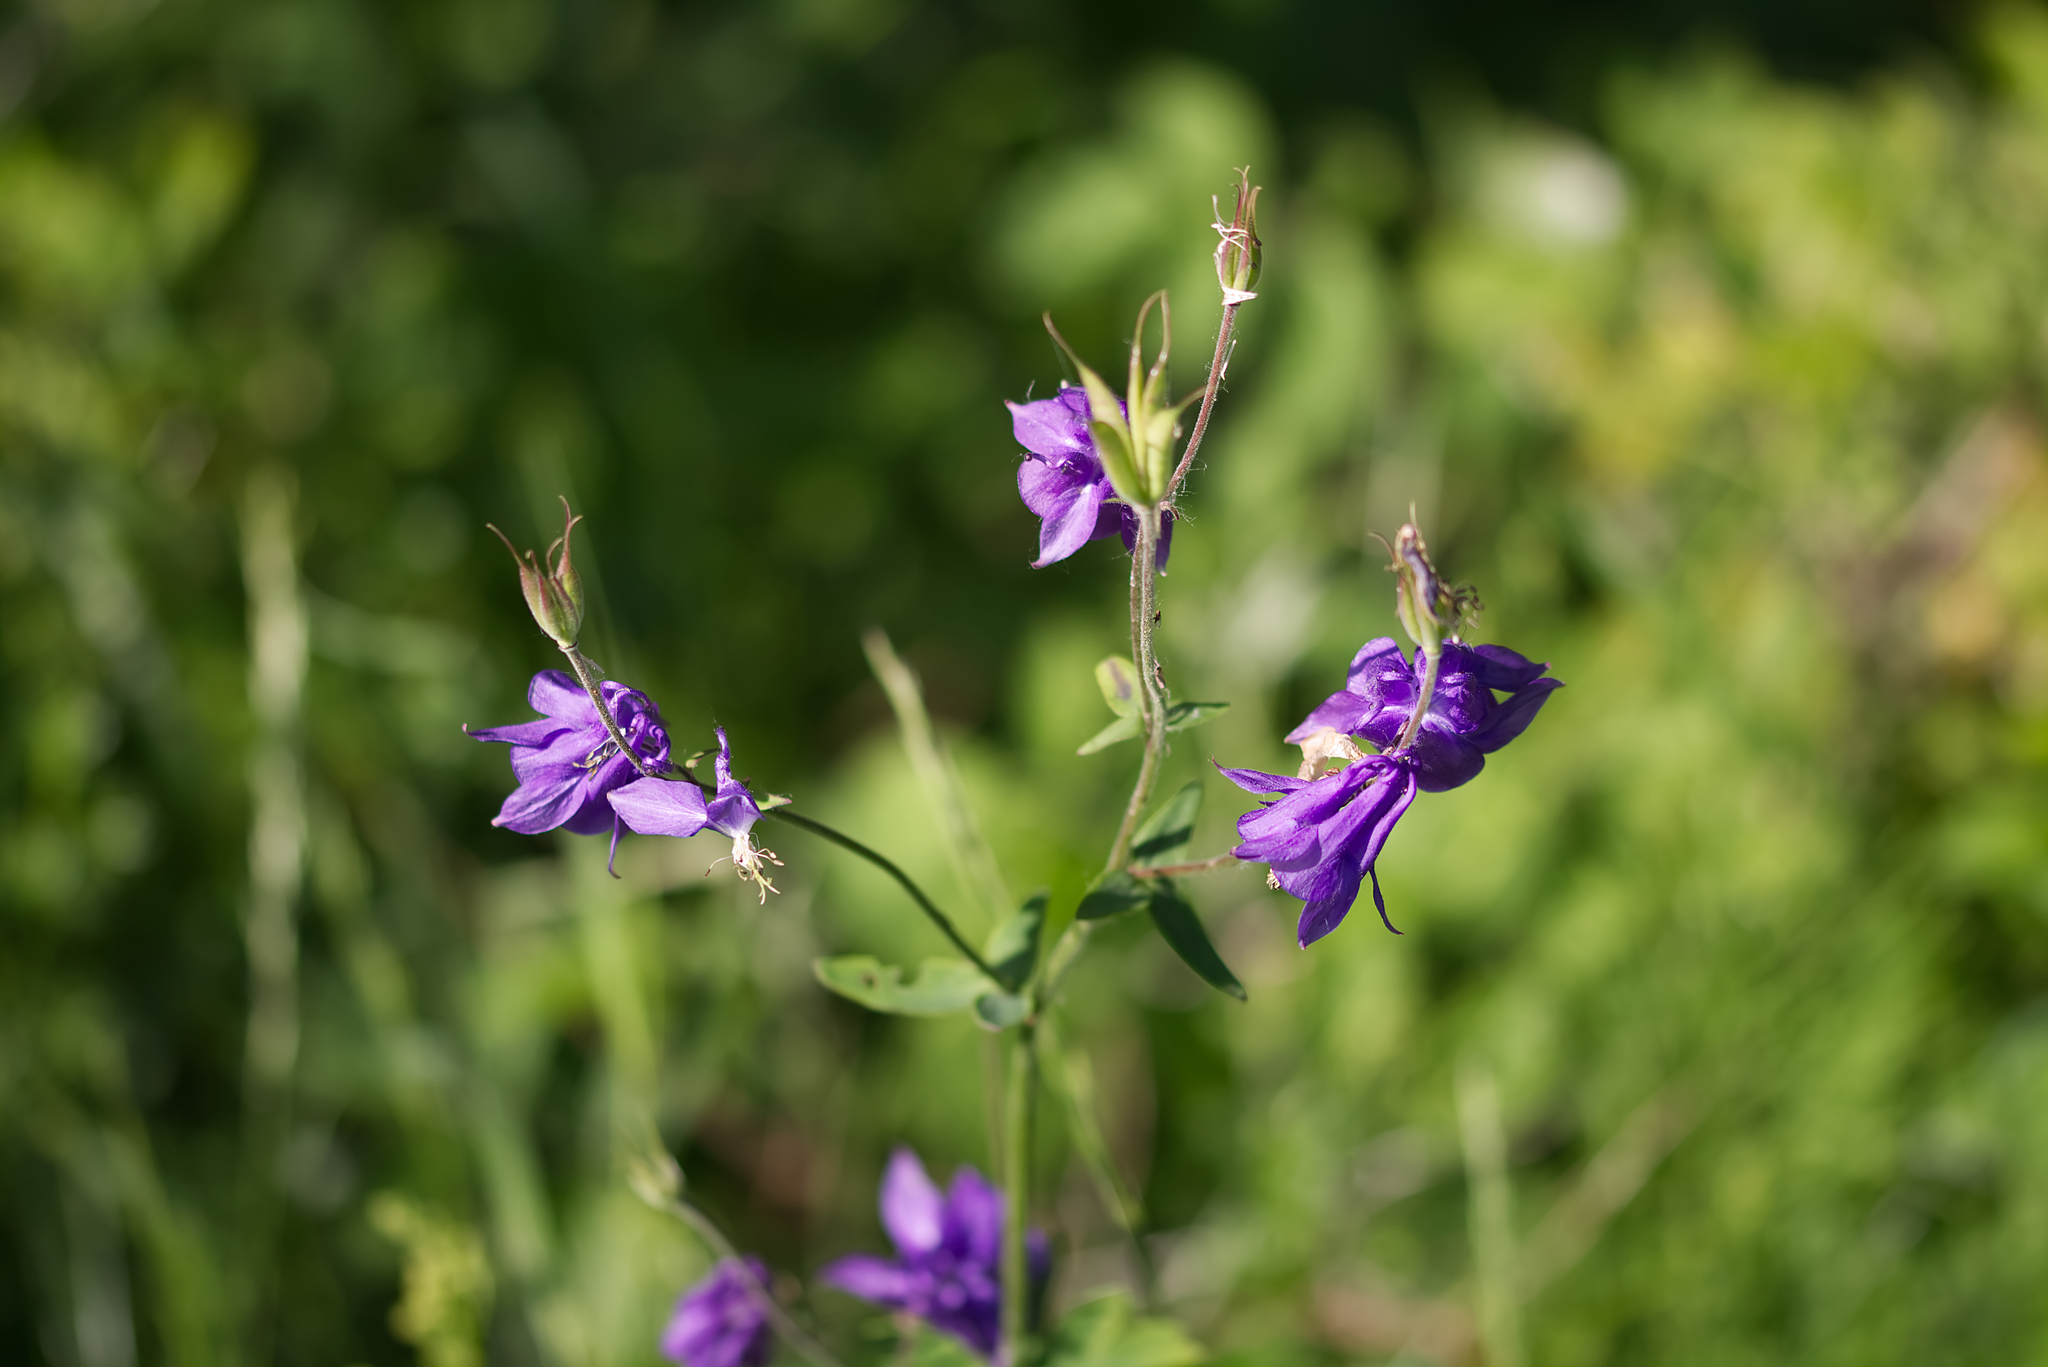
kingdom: Plantae
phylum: Tracheophyta
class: Magnoliopsida
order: Ranunculales
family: Ranunculaceae
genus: Aquilegia
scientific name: Aquilegia vulgaris
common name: Columbine
